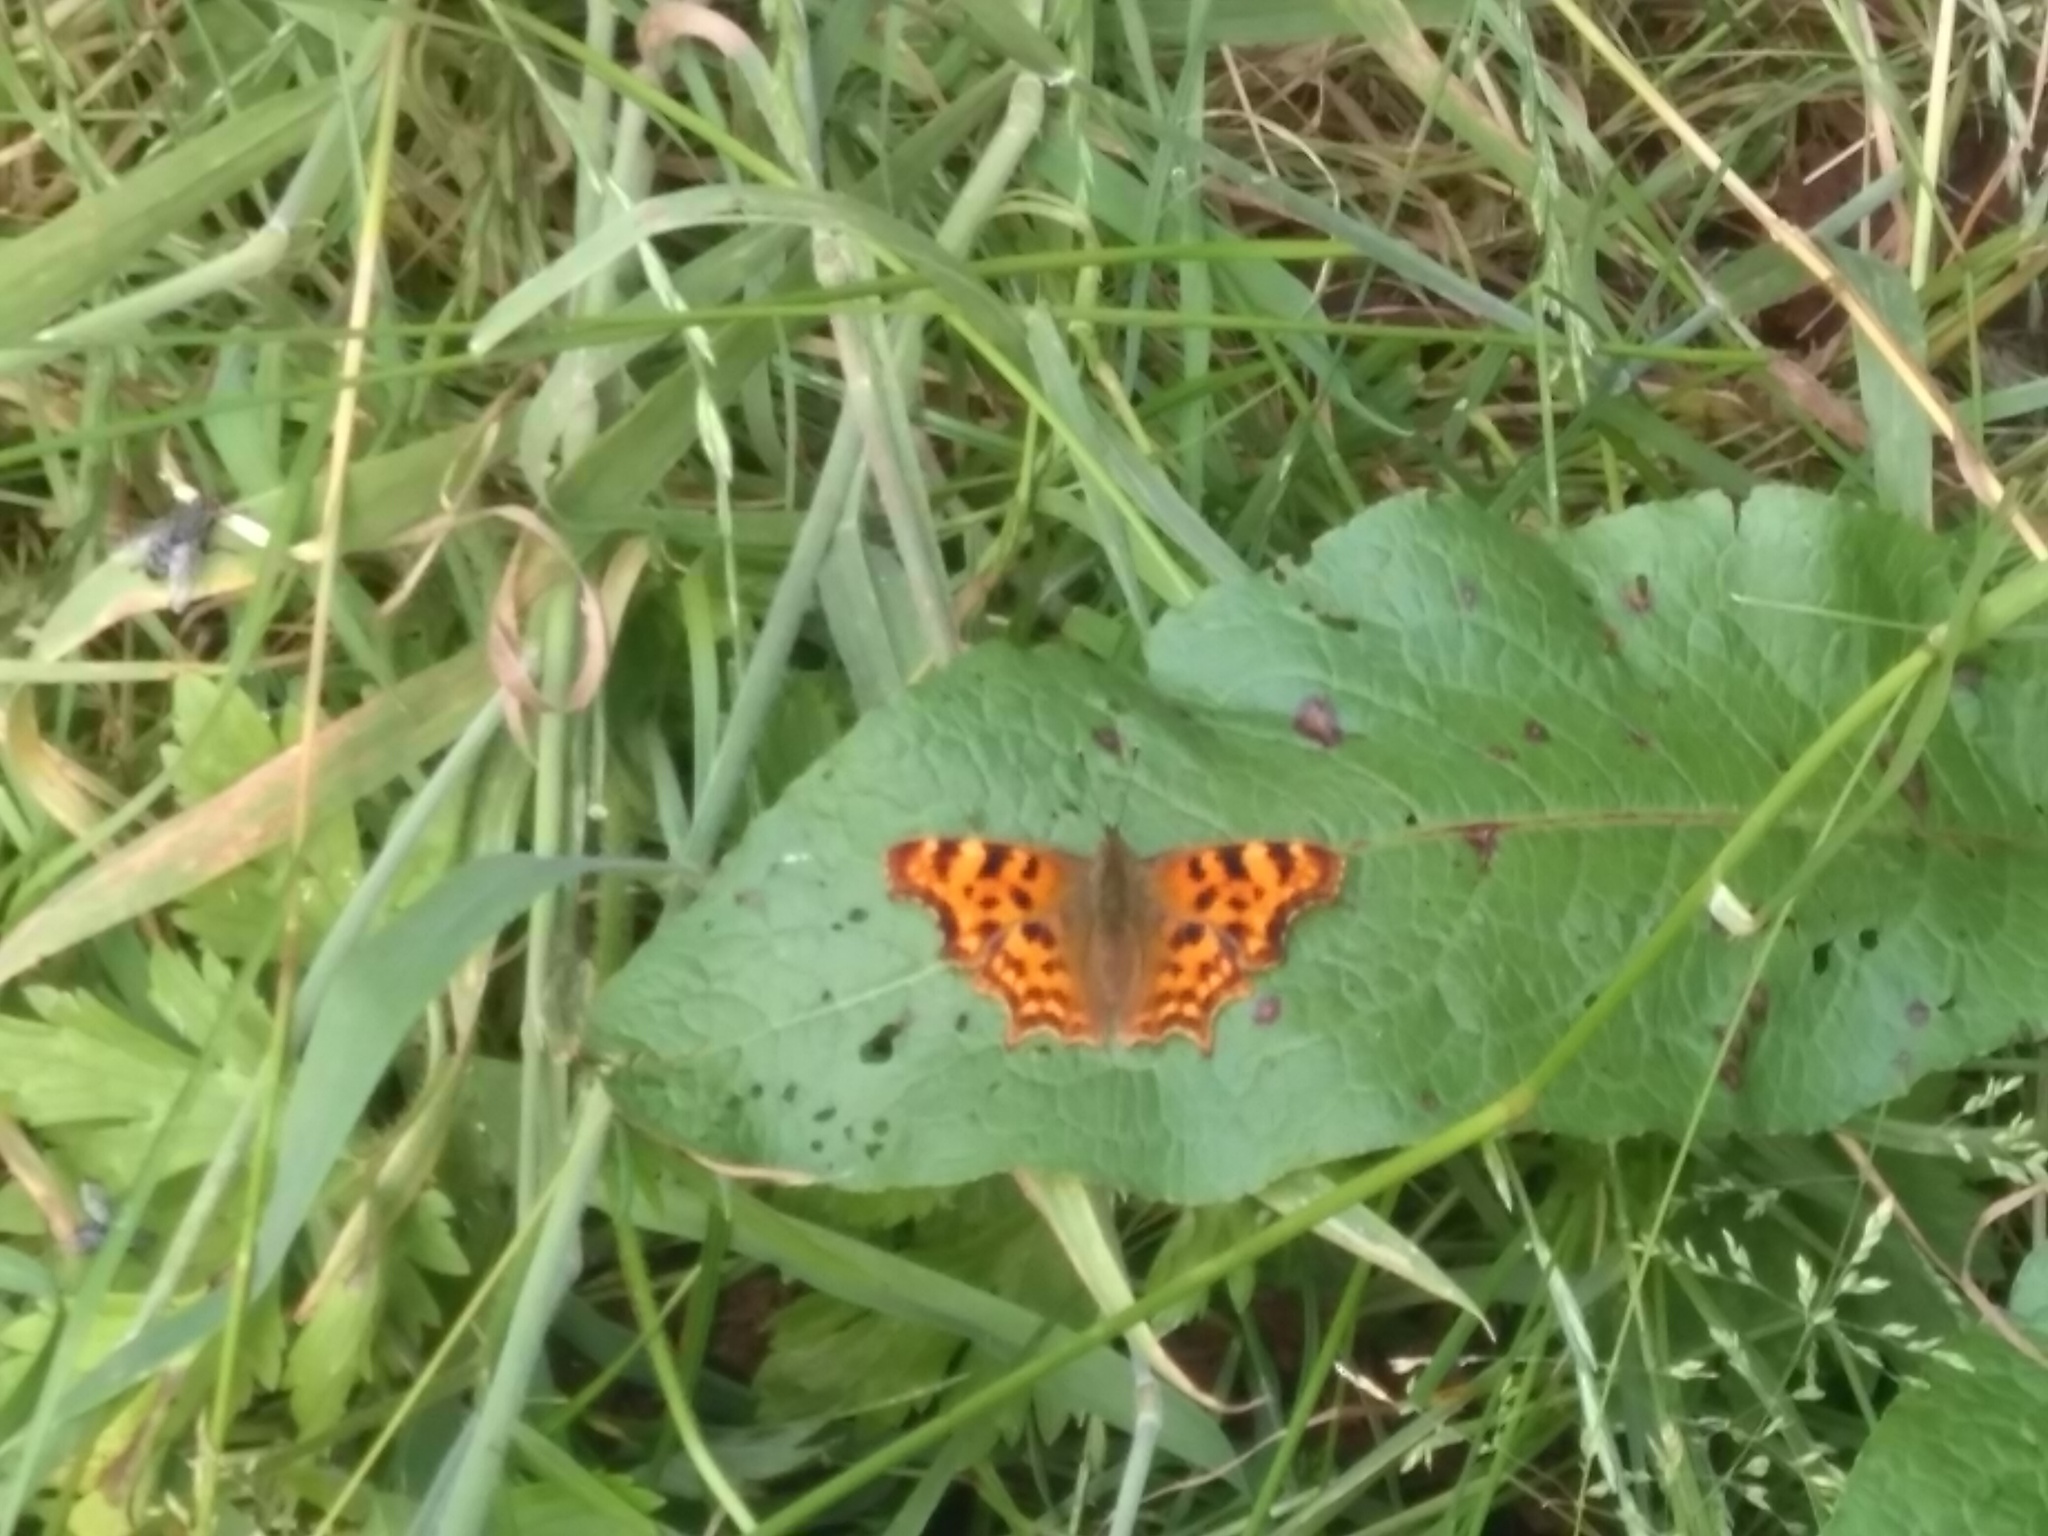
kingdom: Animalia
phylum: Arthropoda
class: Insecta
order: Lepidoptera
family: Nymphalidae
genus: Polygonia
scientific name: Polygonia c-album
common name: Comma
